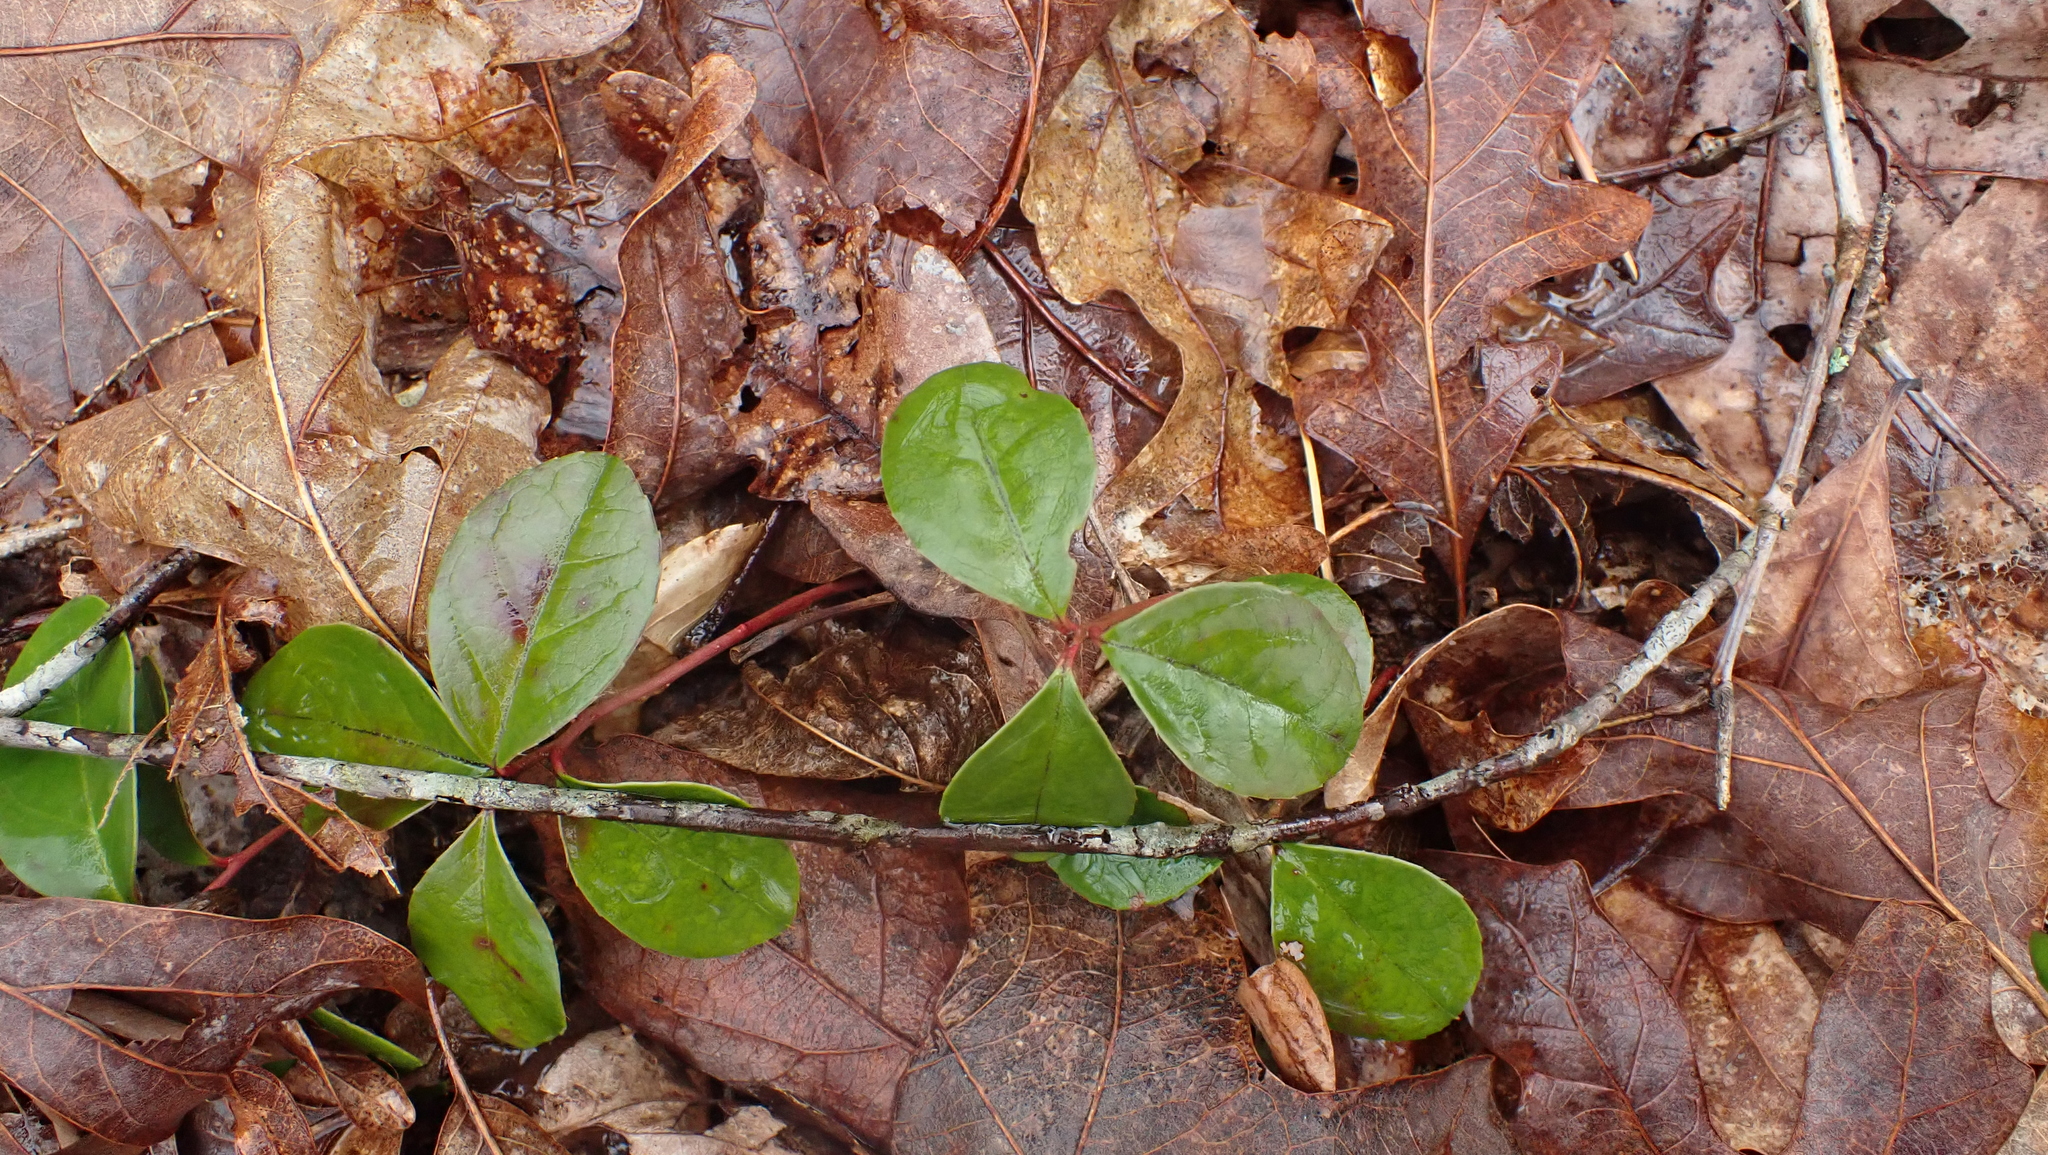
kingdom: Plantae
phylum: Tracheophyta
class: Magnoliopsida
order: Ericales
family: Ericaceae
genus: Gaultheria
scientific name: Gaultheria procumbens
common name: Checkerberry
